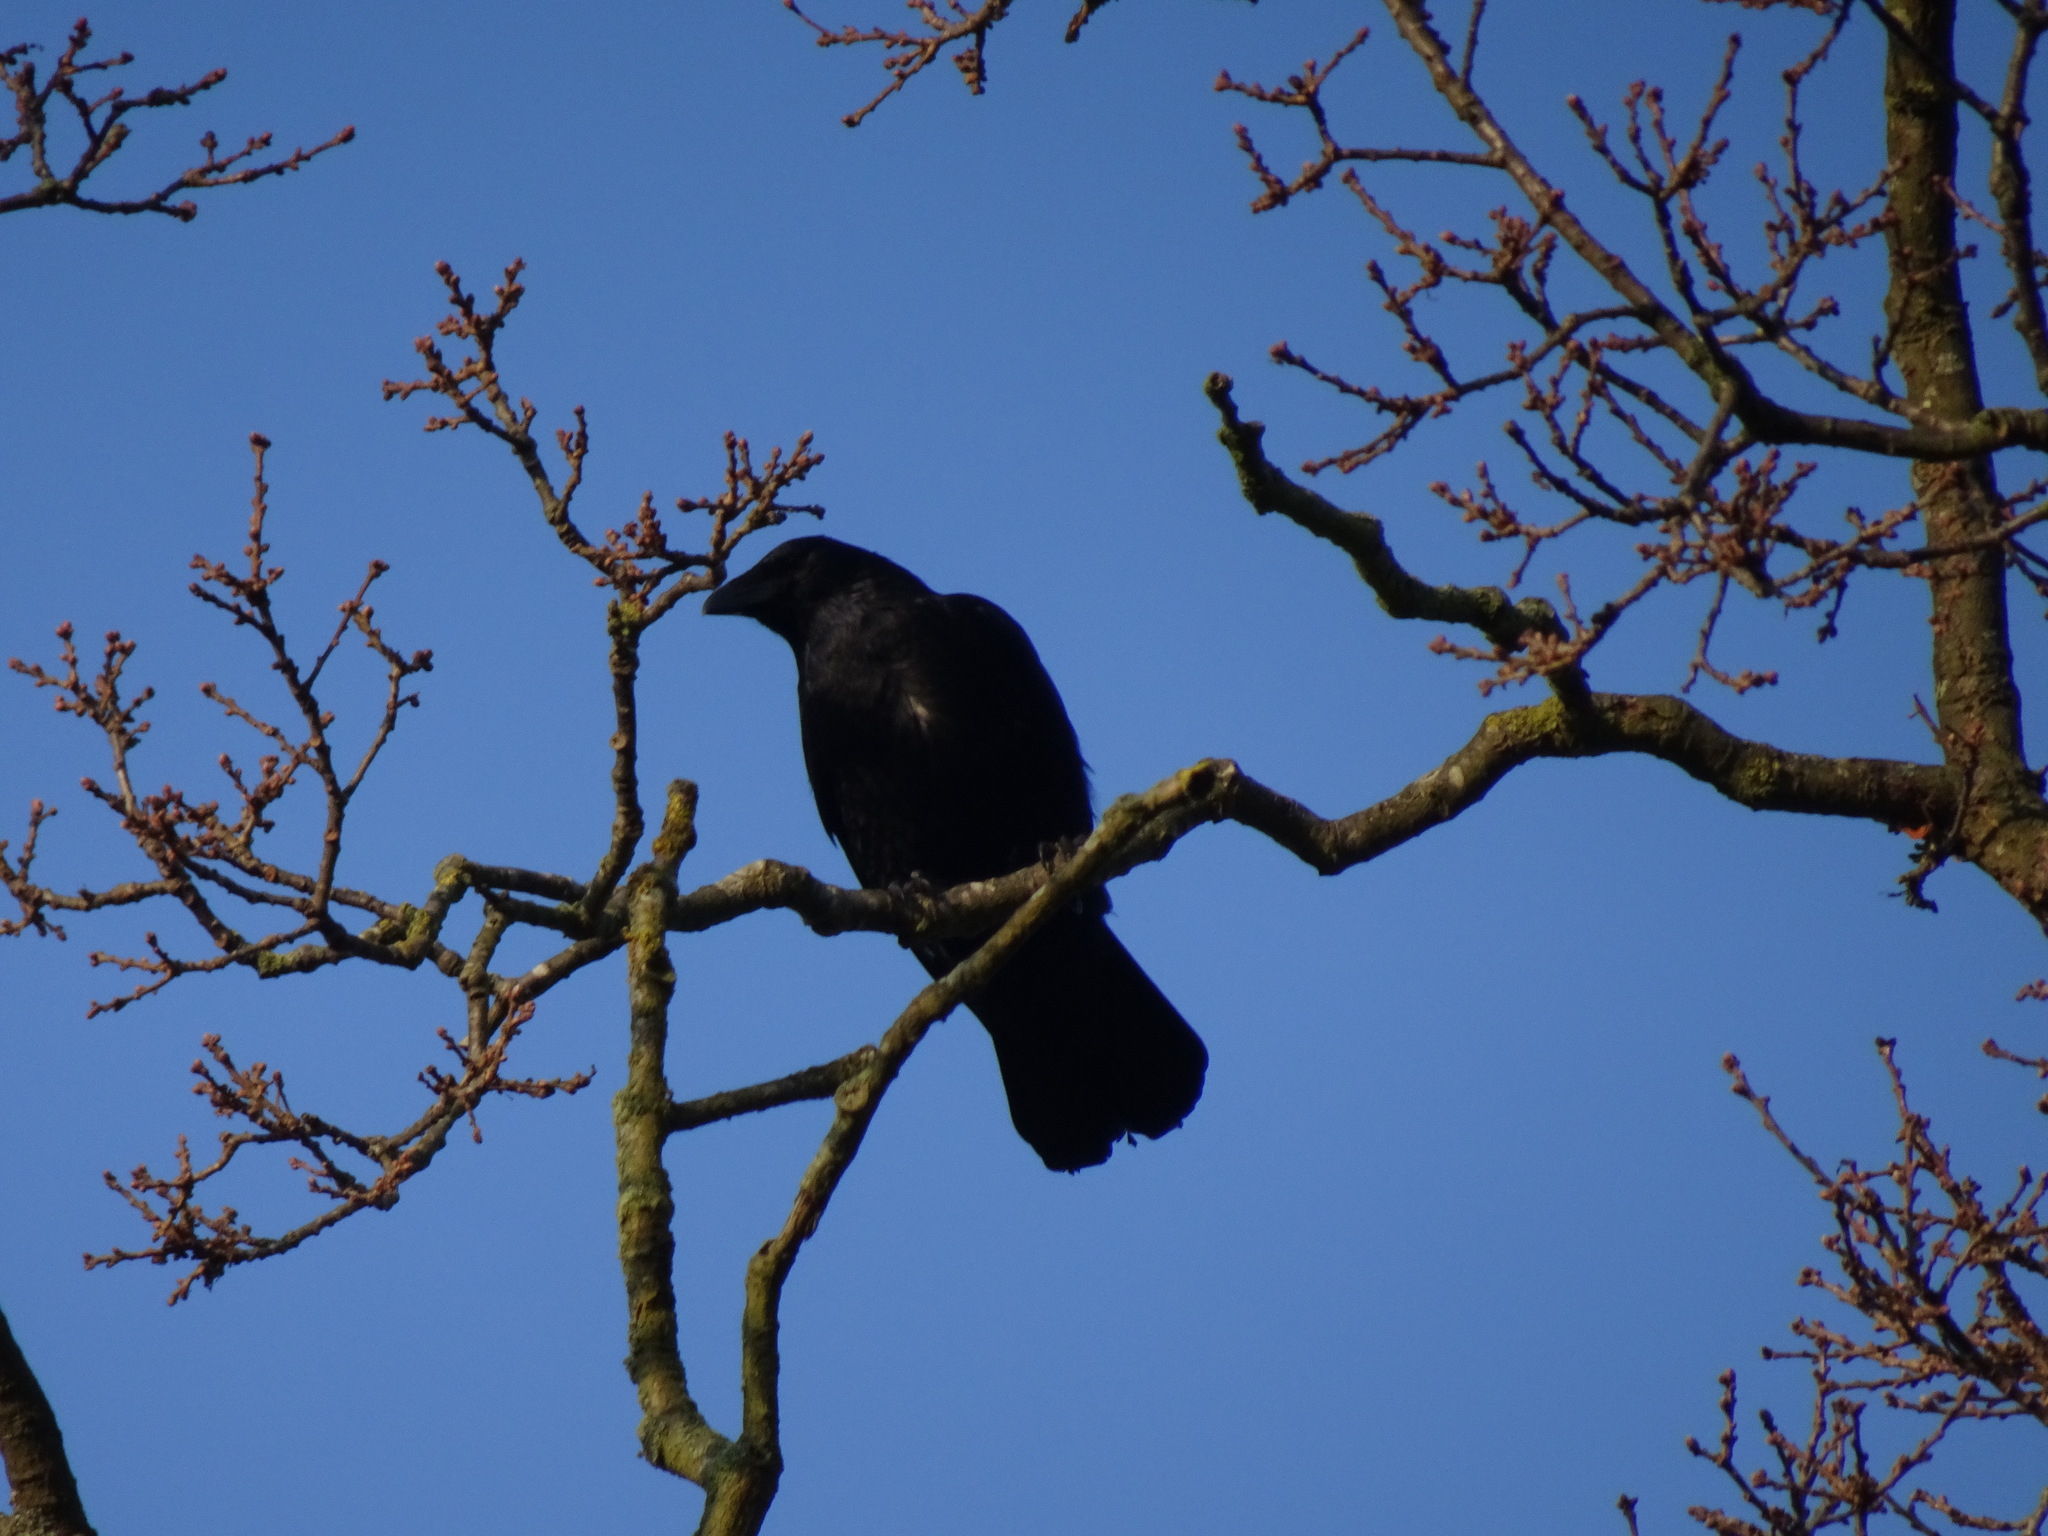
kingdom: Animalia
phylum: Chordata
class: Aves
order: Passeriformes
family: Corvidae
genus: Corvus
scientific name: Corvus corone
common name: Carrion crow
